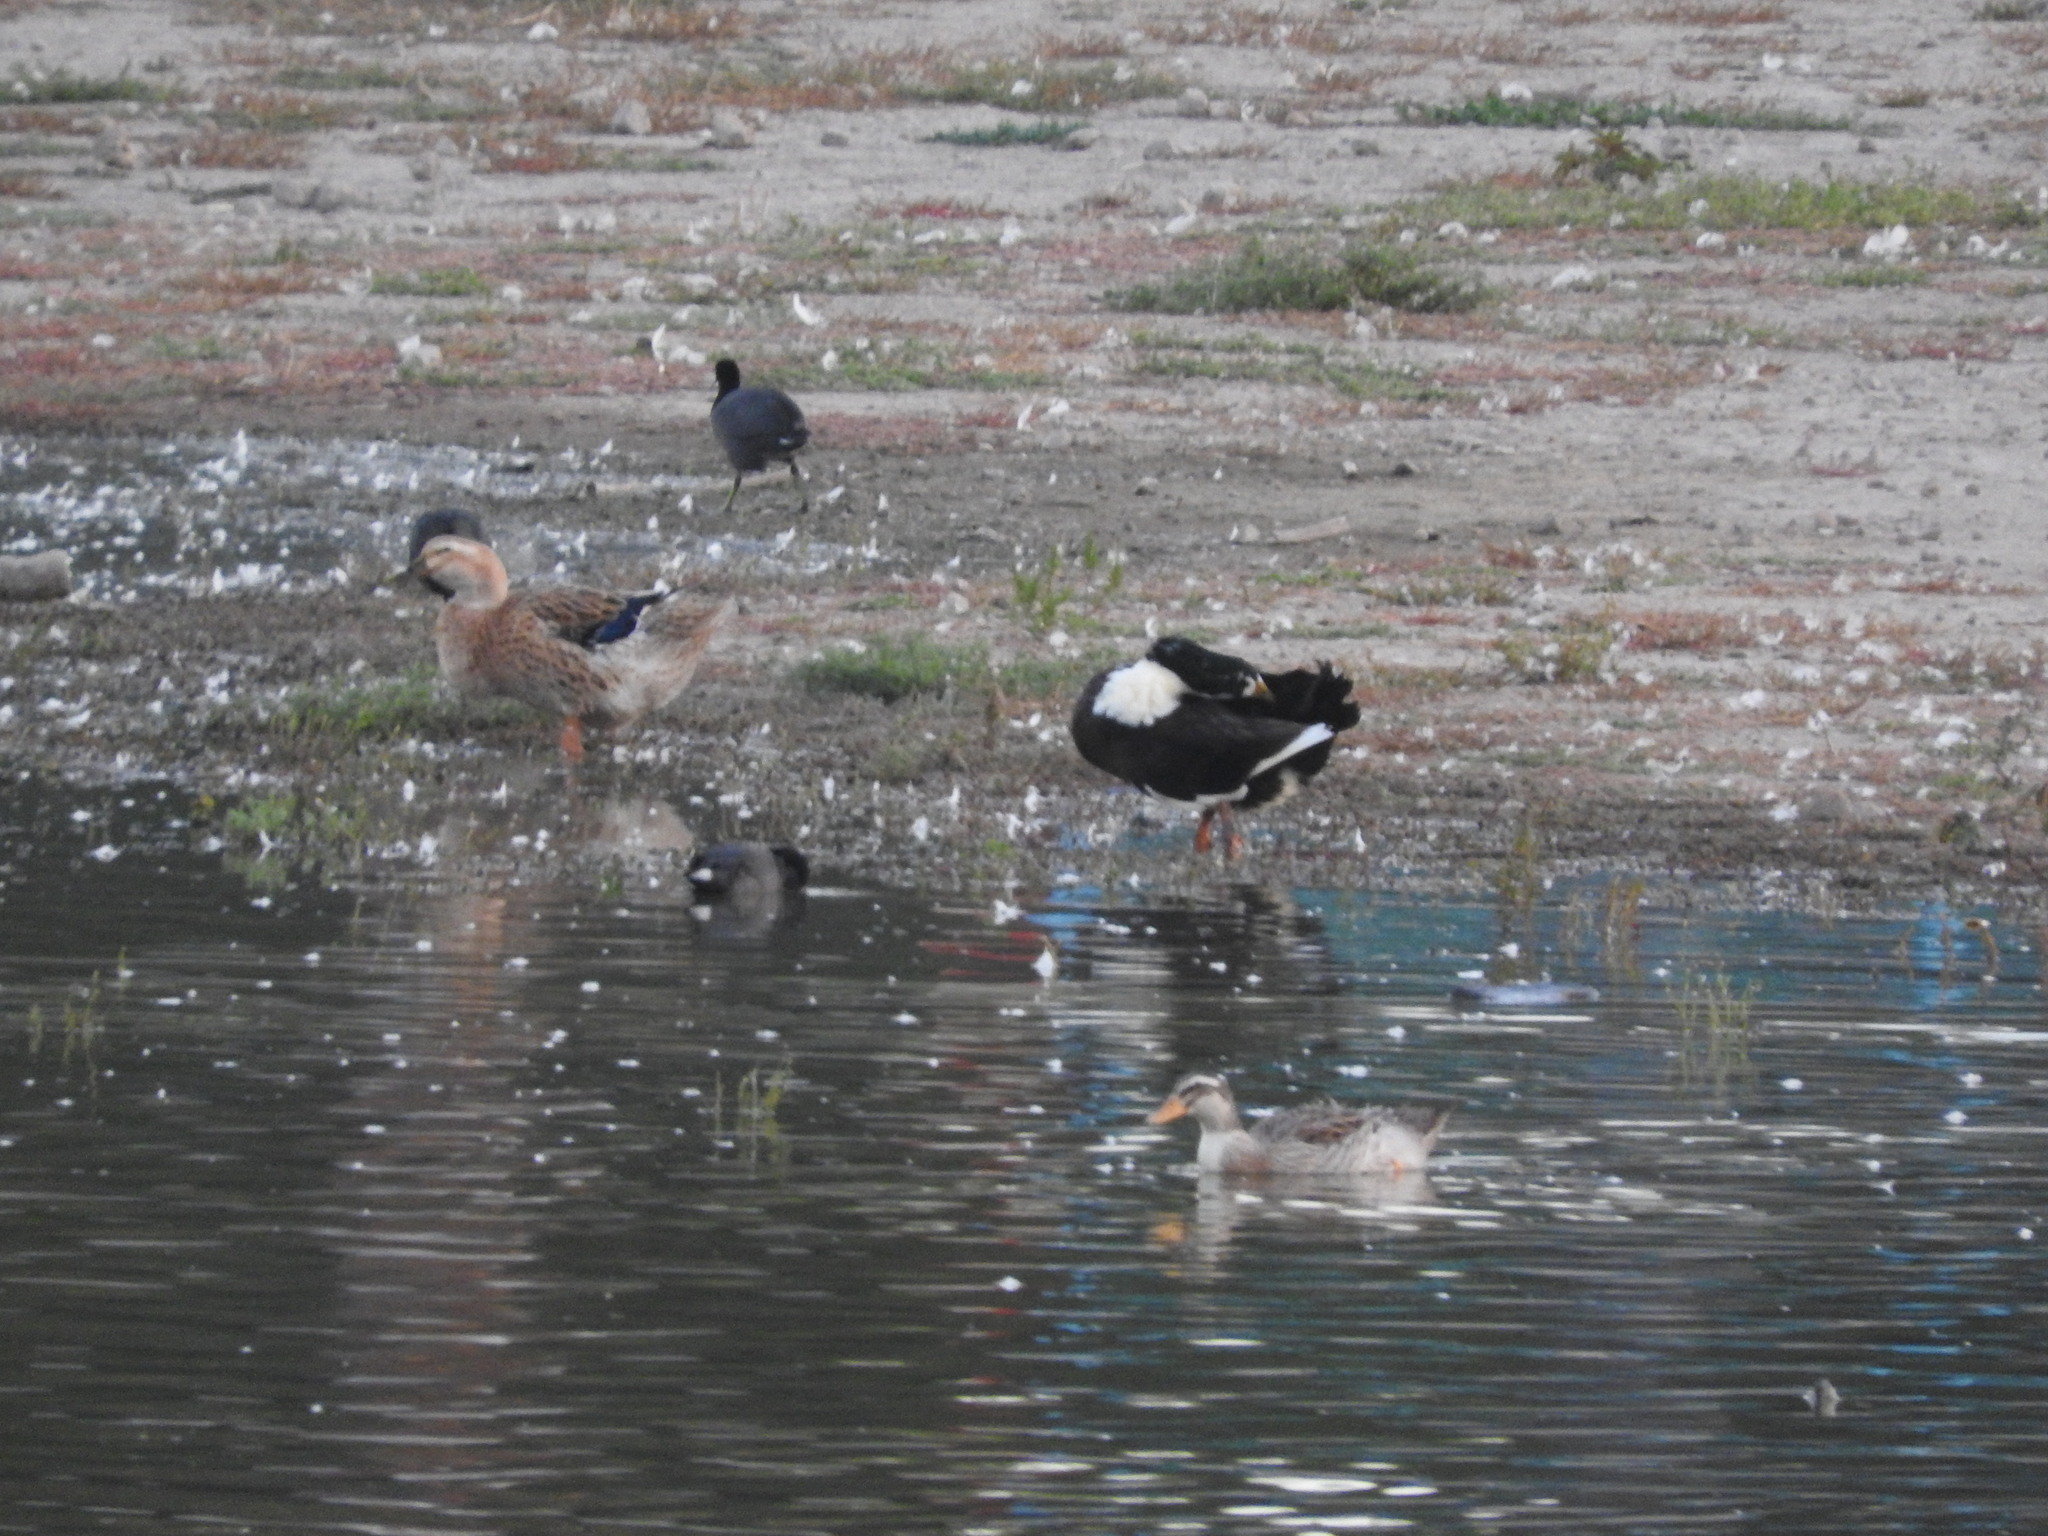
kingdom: Animalia
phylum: Chordata
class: Aves
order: Anseriformes
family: Anatidae
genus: Anas
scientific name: Anas platyrhynchos
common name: Mallard
